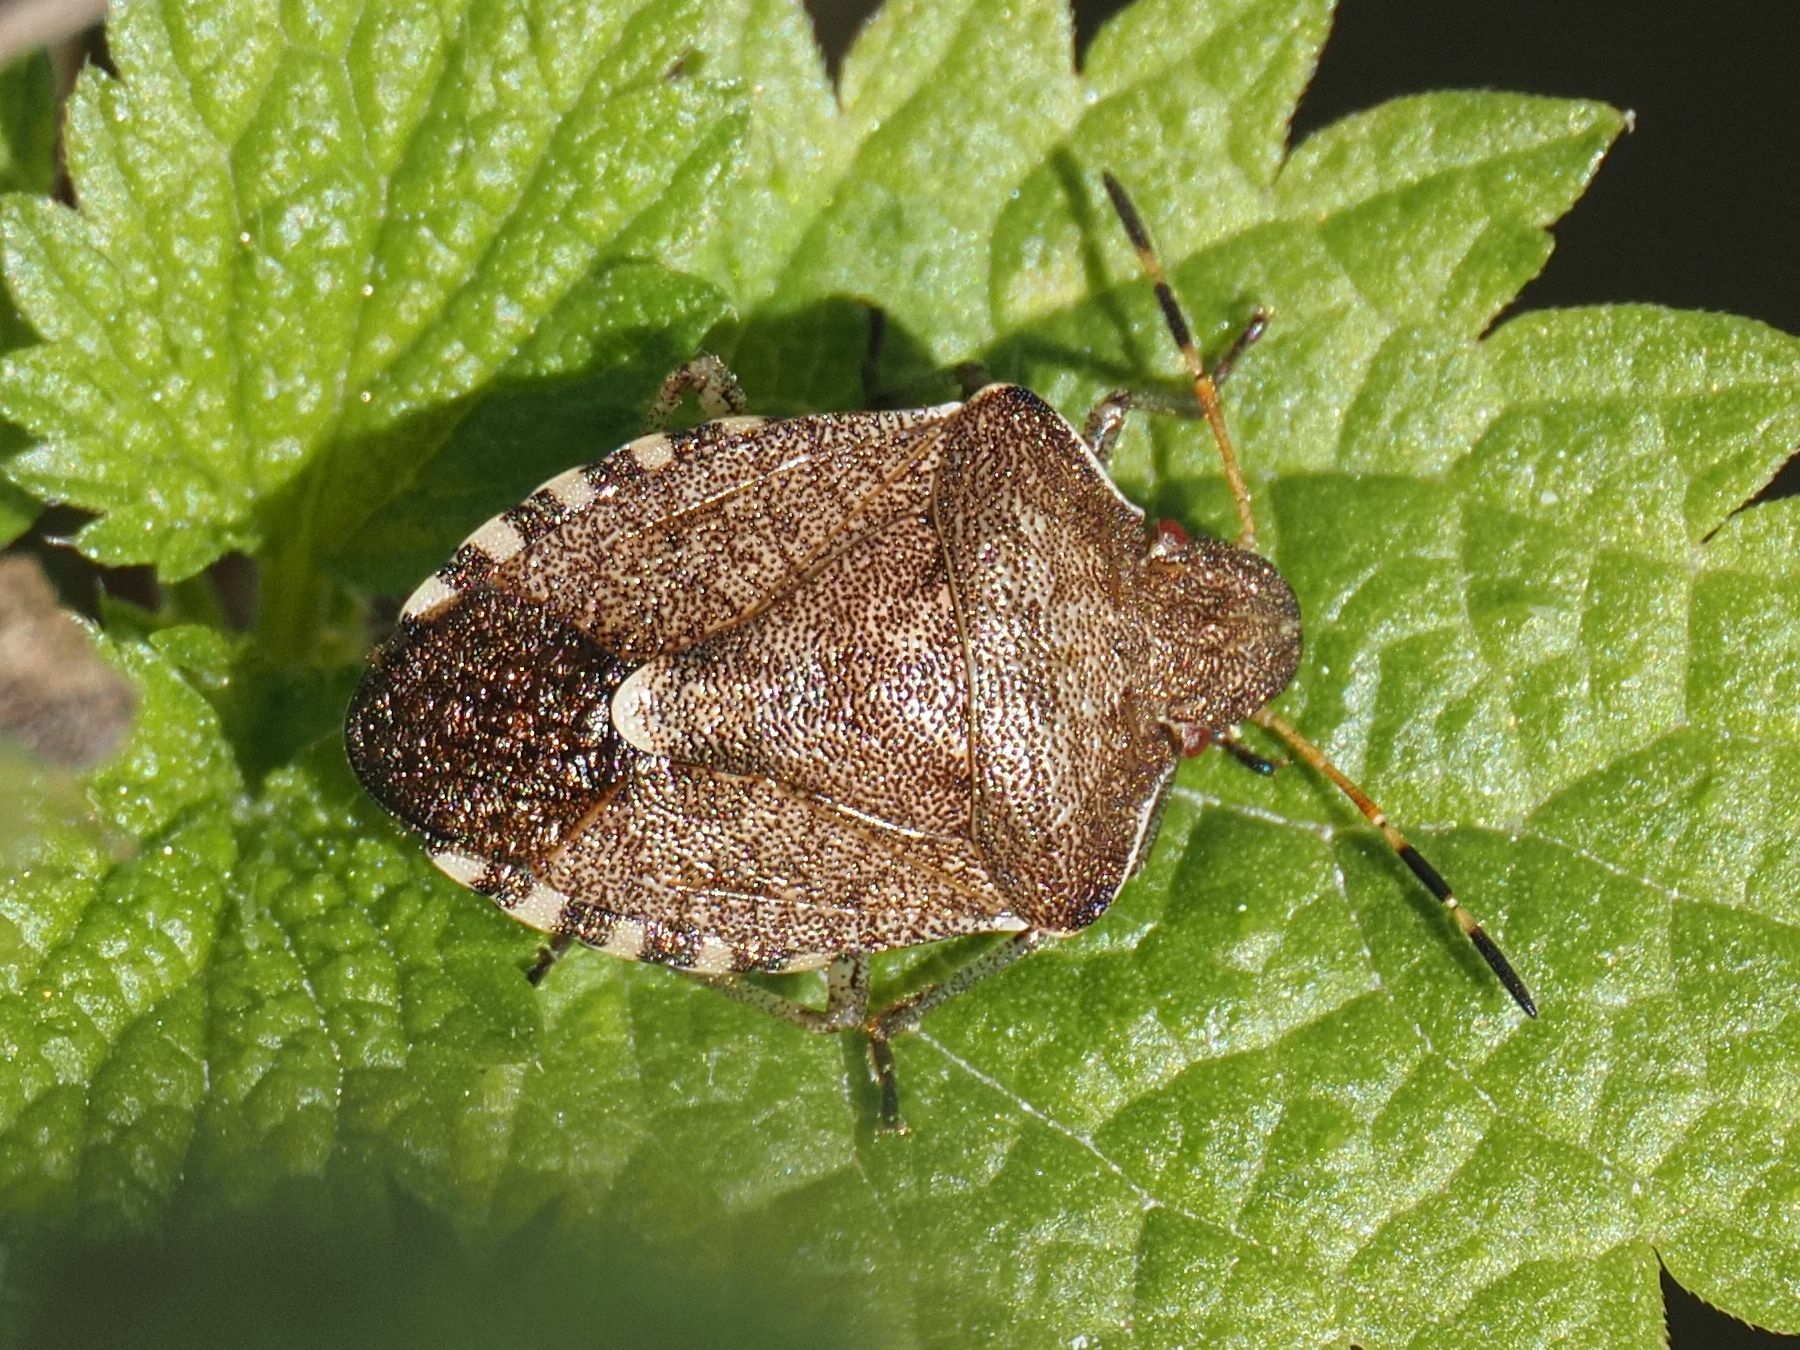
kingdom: Animalia
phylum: Arthropoda
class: Insecta
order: Hemiptera
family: Pentatomidae
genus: Holcostethus
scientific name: Holcostethus strictus
